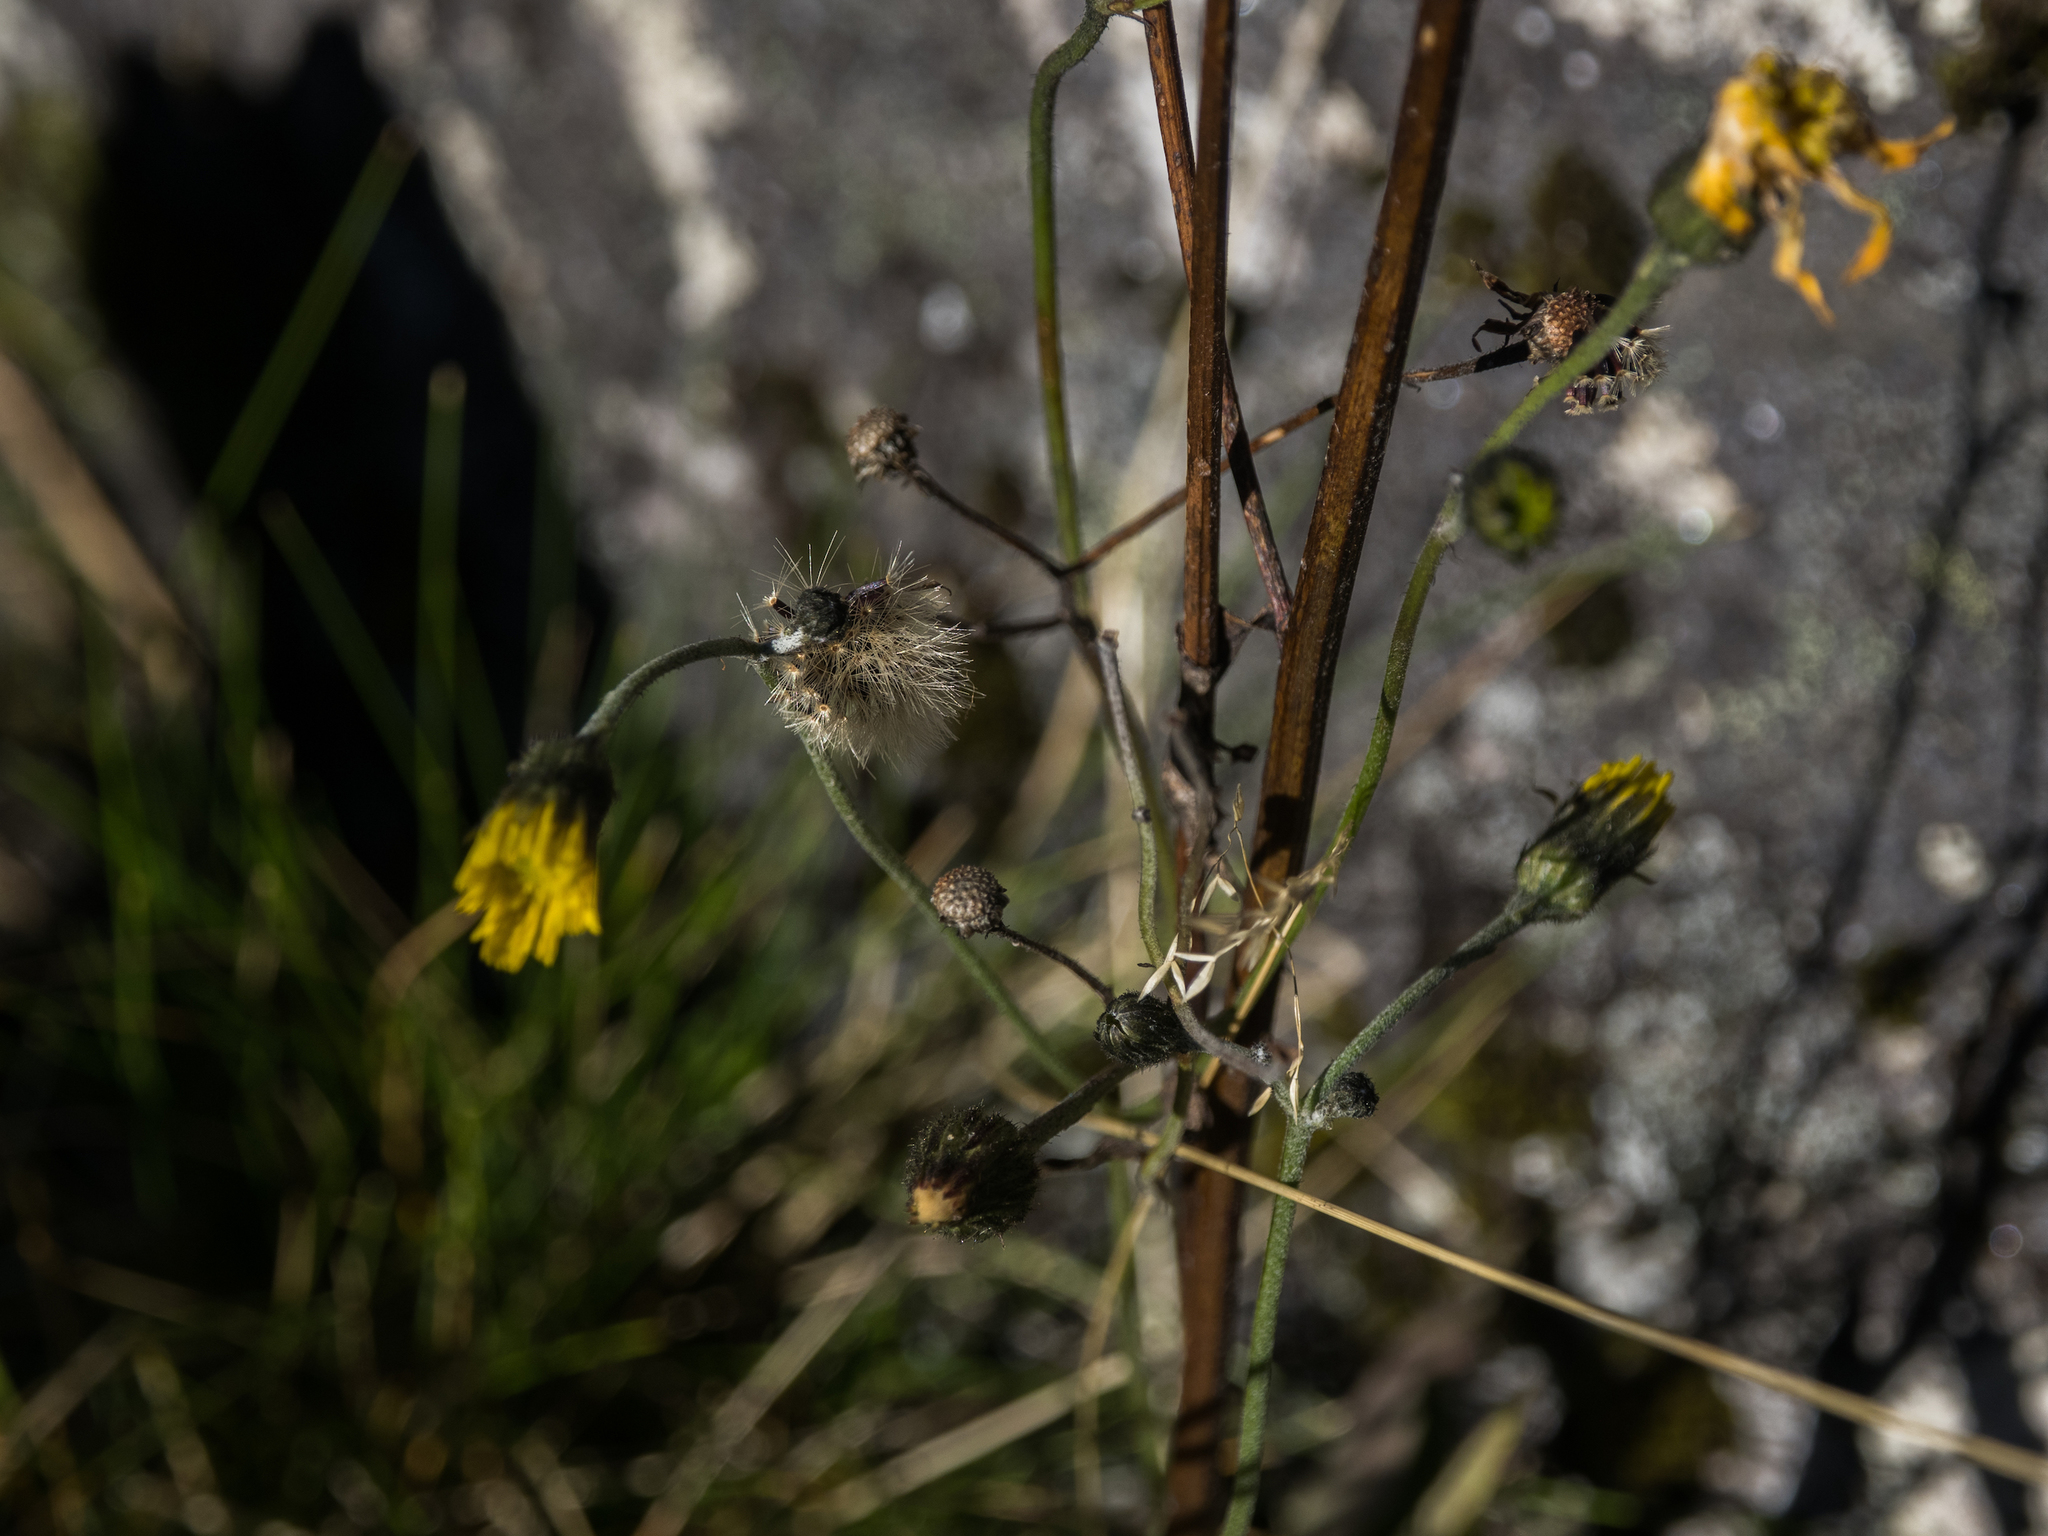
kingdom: Plantae
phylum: Tracheophyta
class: Magnoliopsida
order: Asterales
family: Asteraceae
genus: Hieracium
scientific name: Hieracium lepidulum
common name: Irregular-toothed hawkweed
